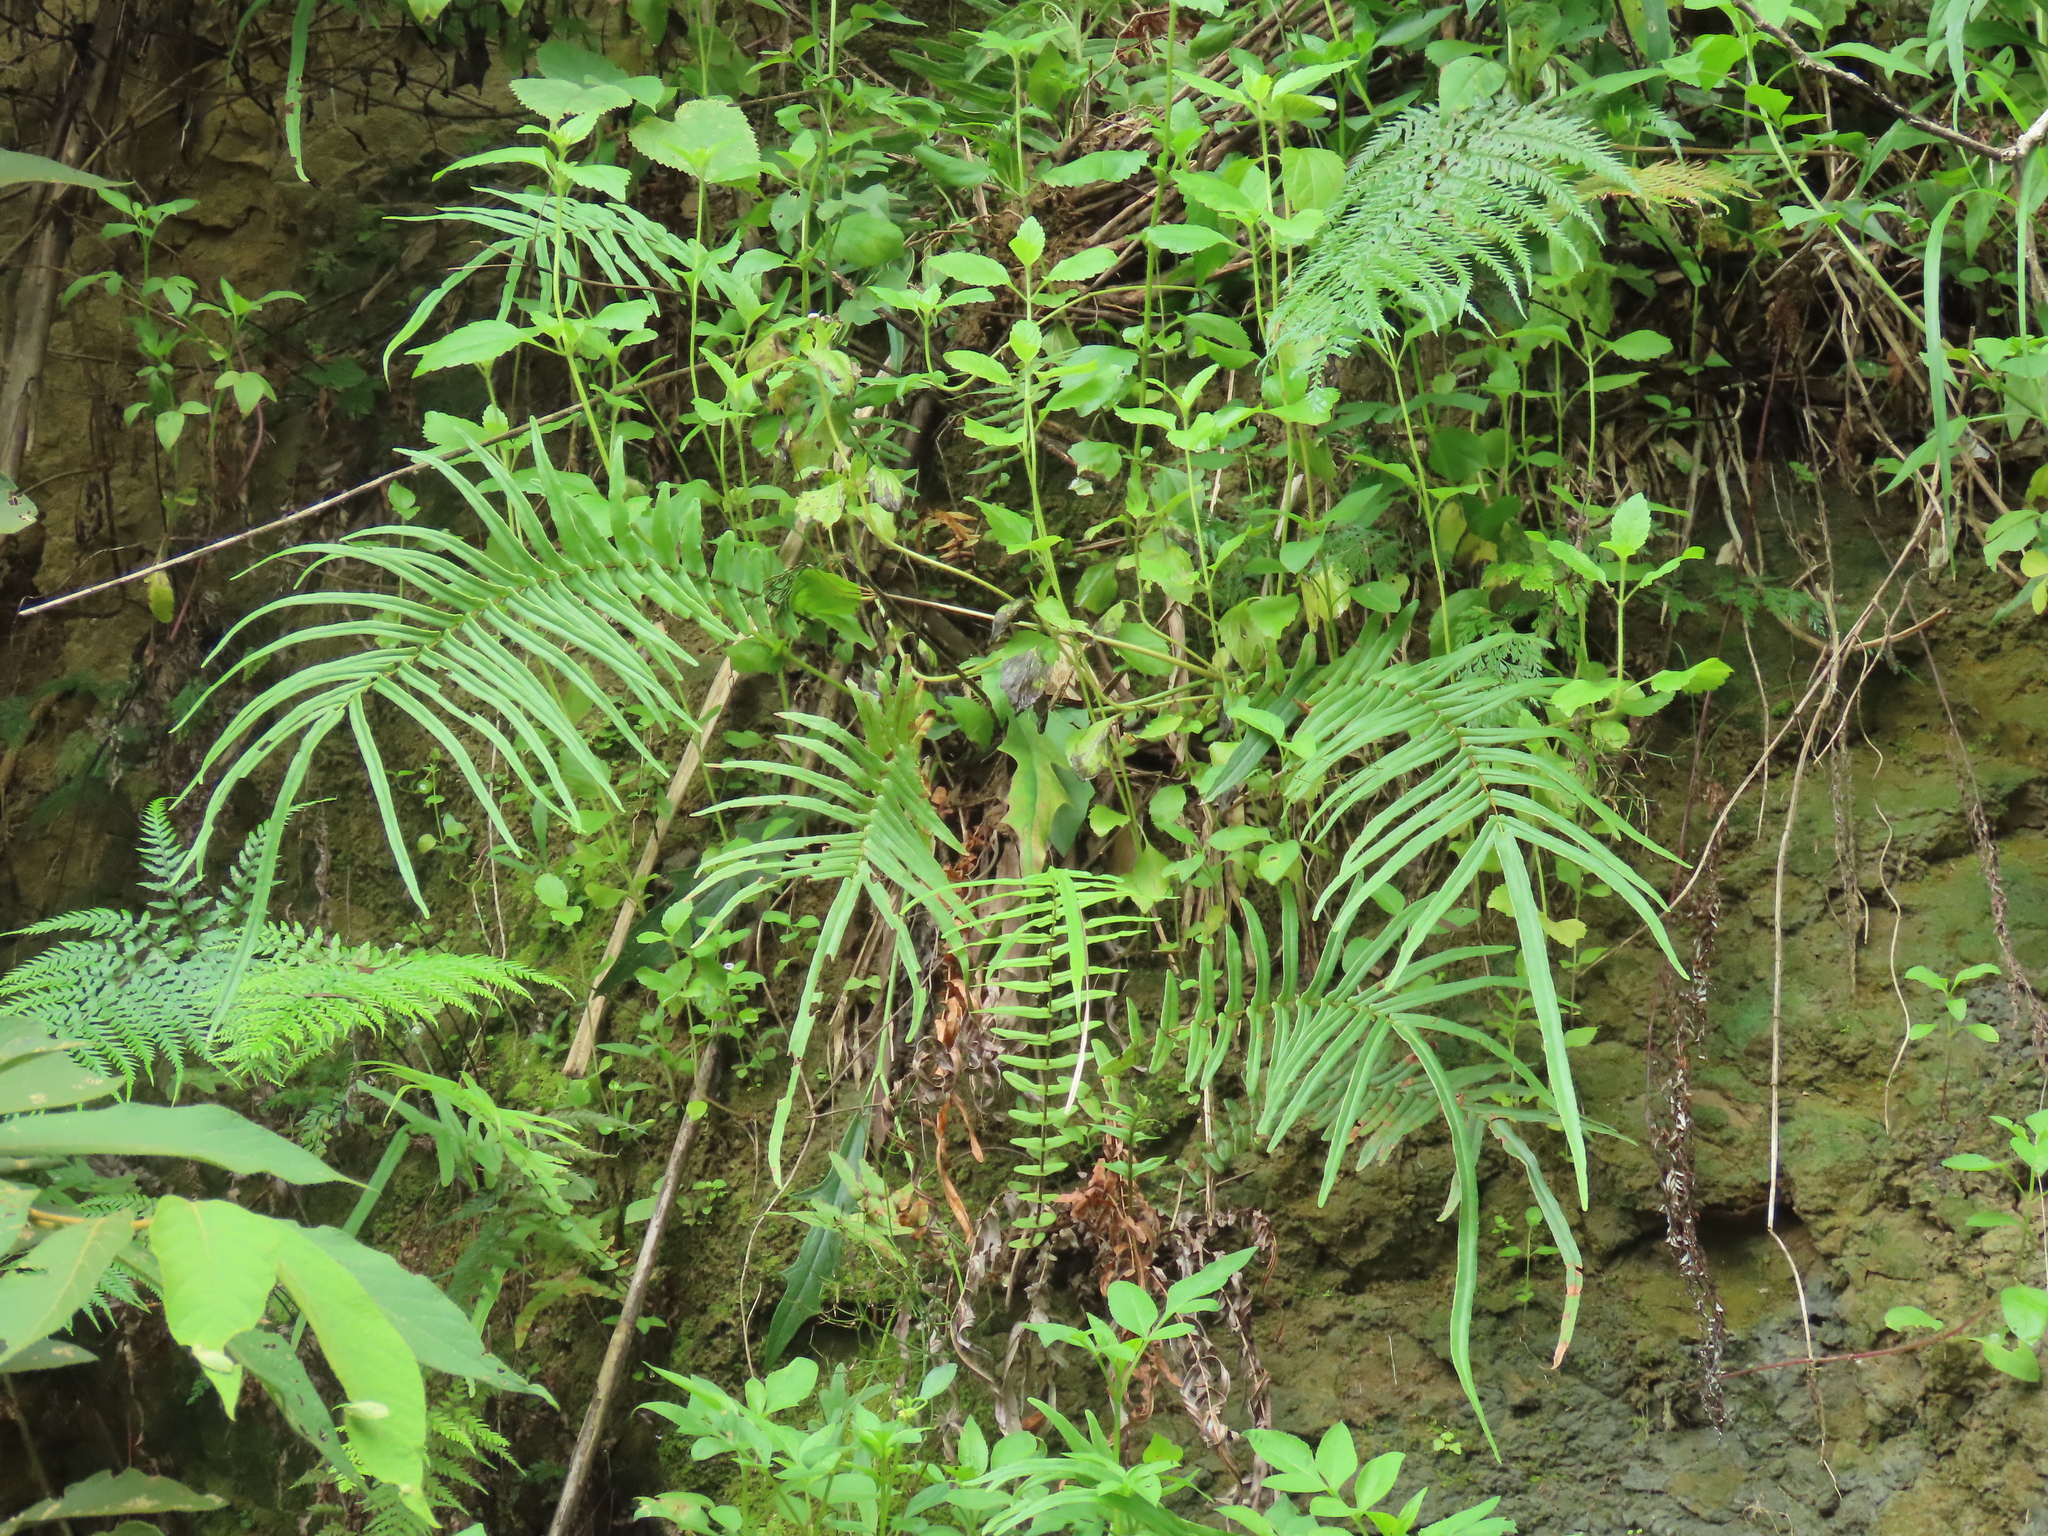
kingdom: Plantae
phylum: Tracheophyta
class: Polypodiopsida
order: Polypodiales
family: Pteridaceae
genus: Pteris
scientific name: Pteris vittata
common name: Ladder brake
